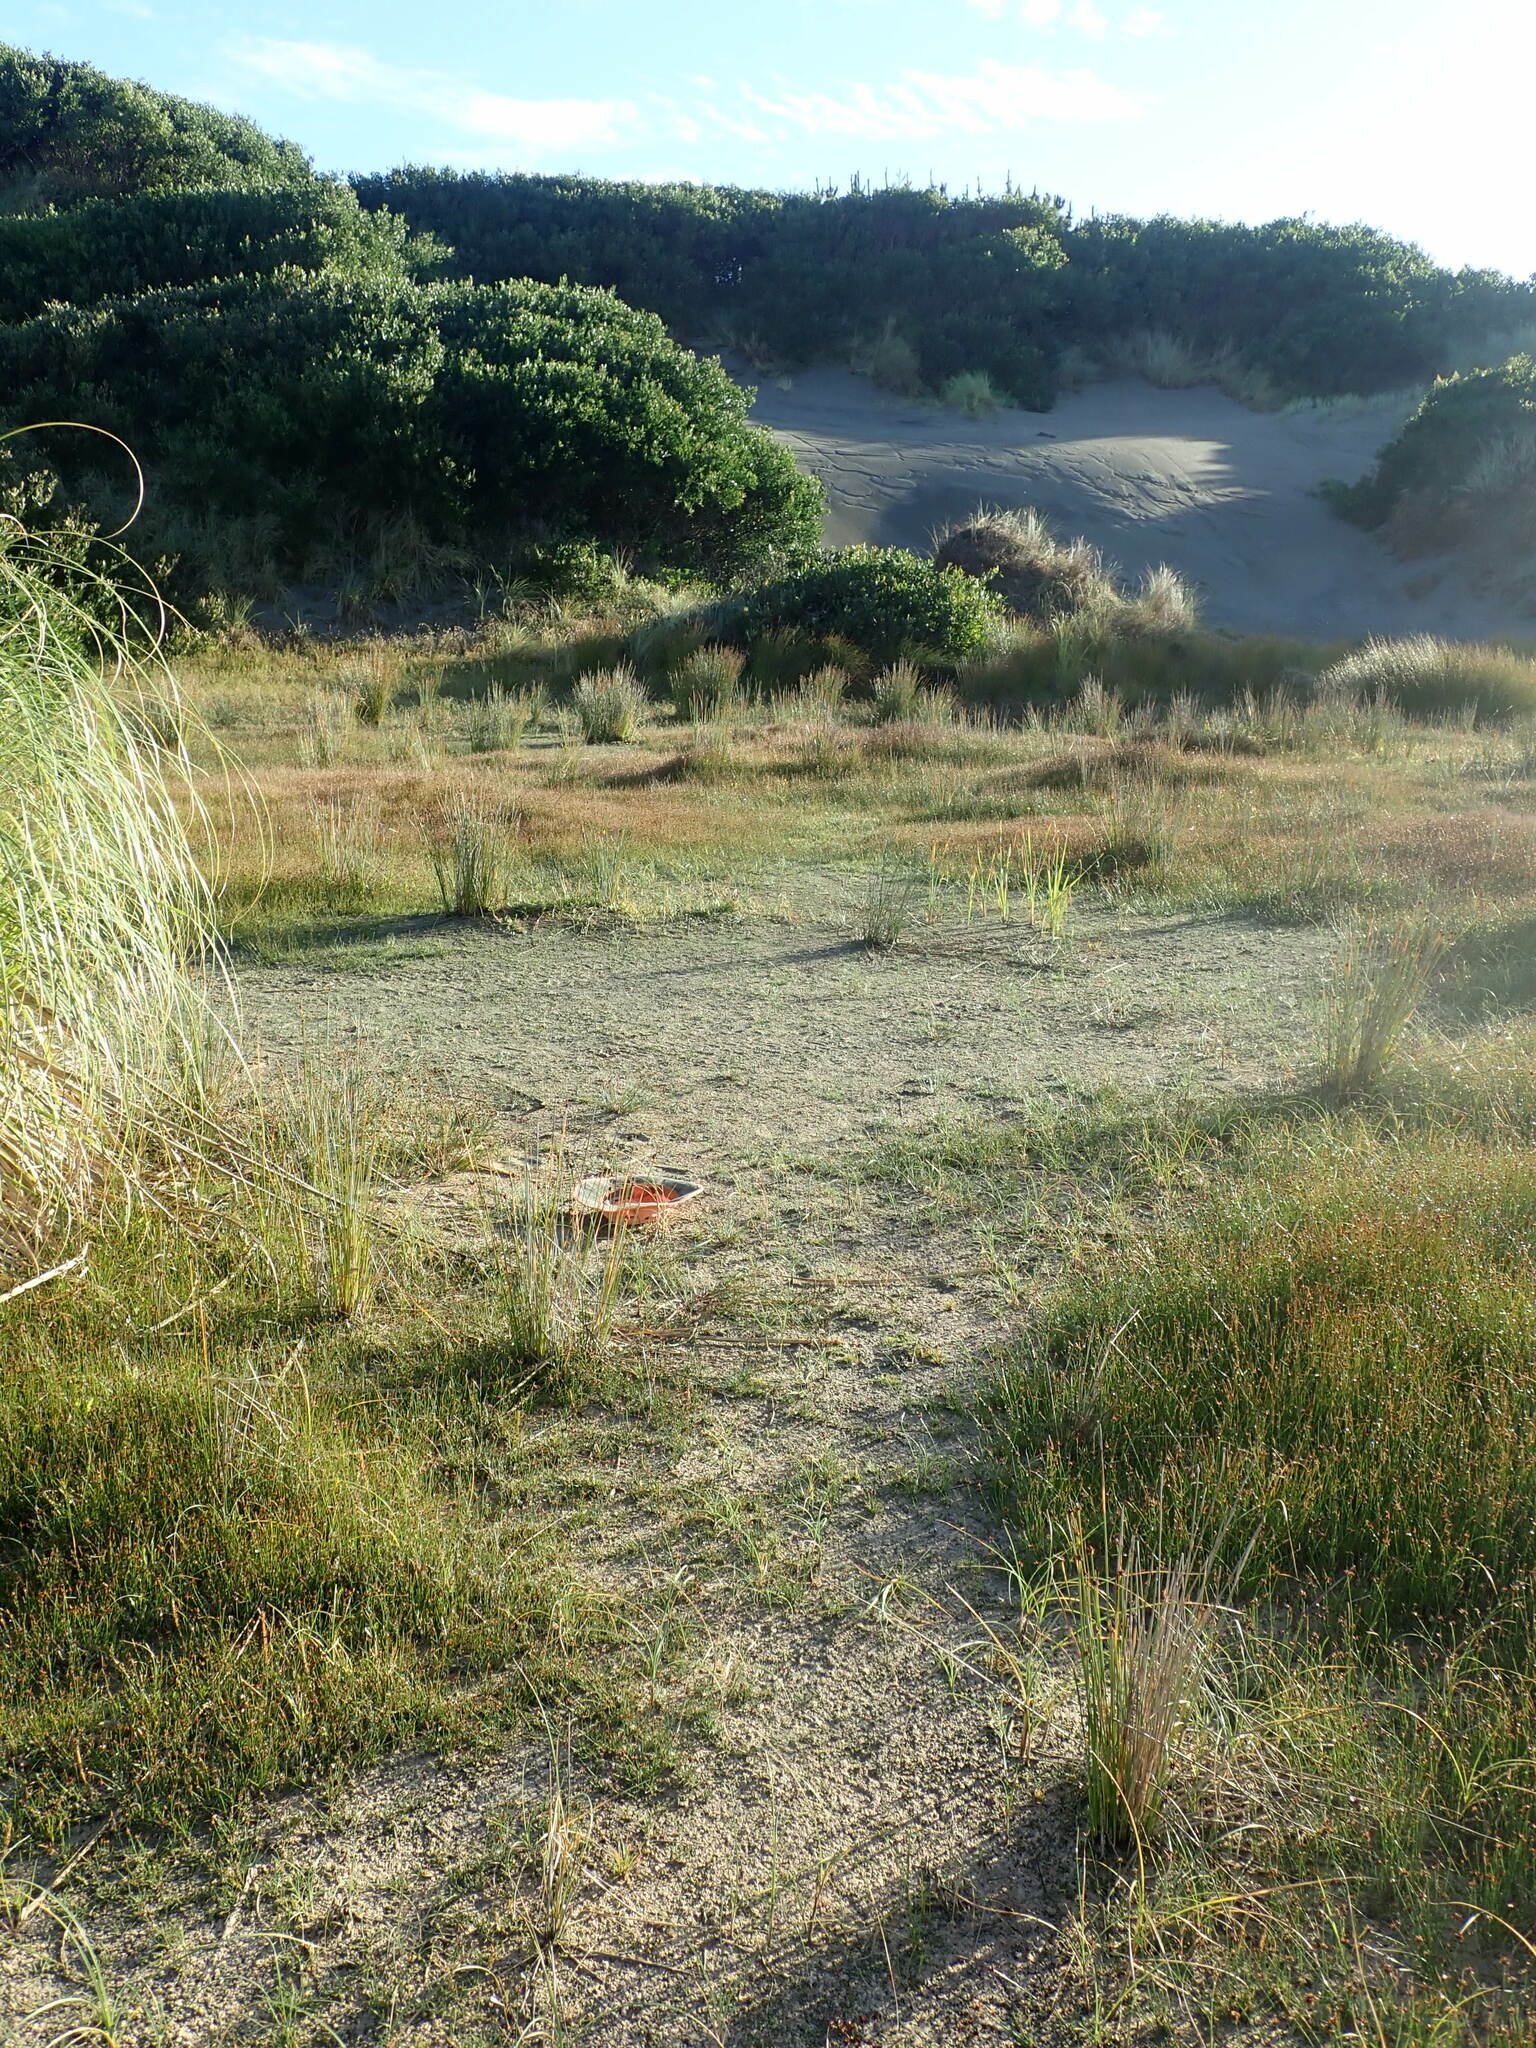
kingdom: Plantae
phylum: Tracheophyta
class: Liliopsida
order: Poales
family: Cyperaceae
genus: Isolepis
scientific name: Isolepis basilaris
